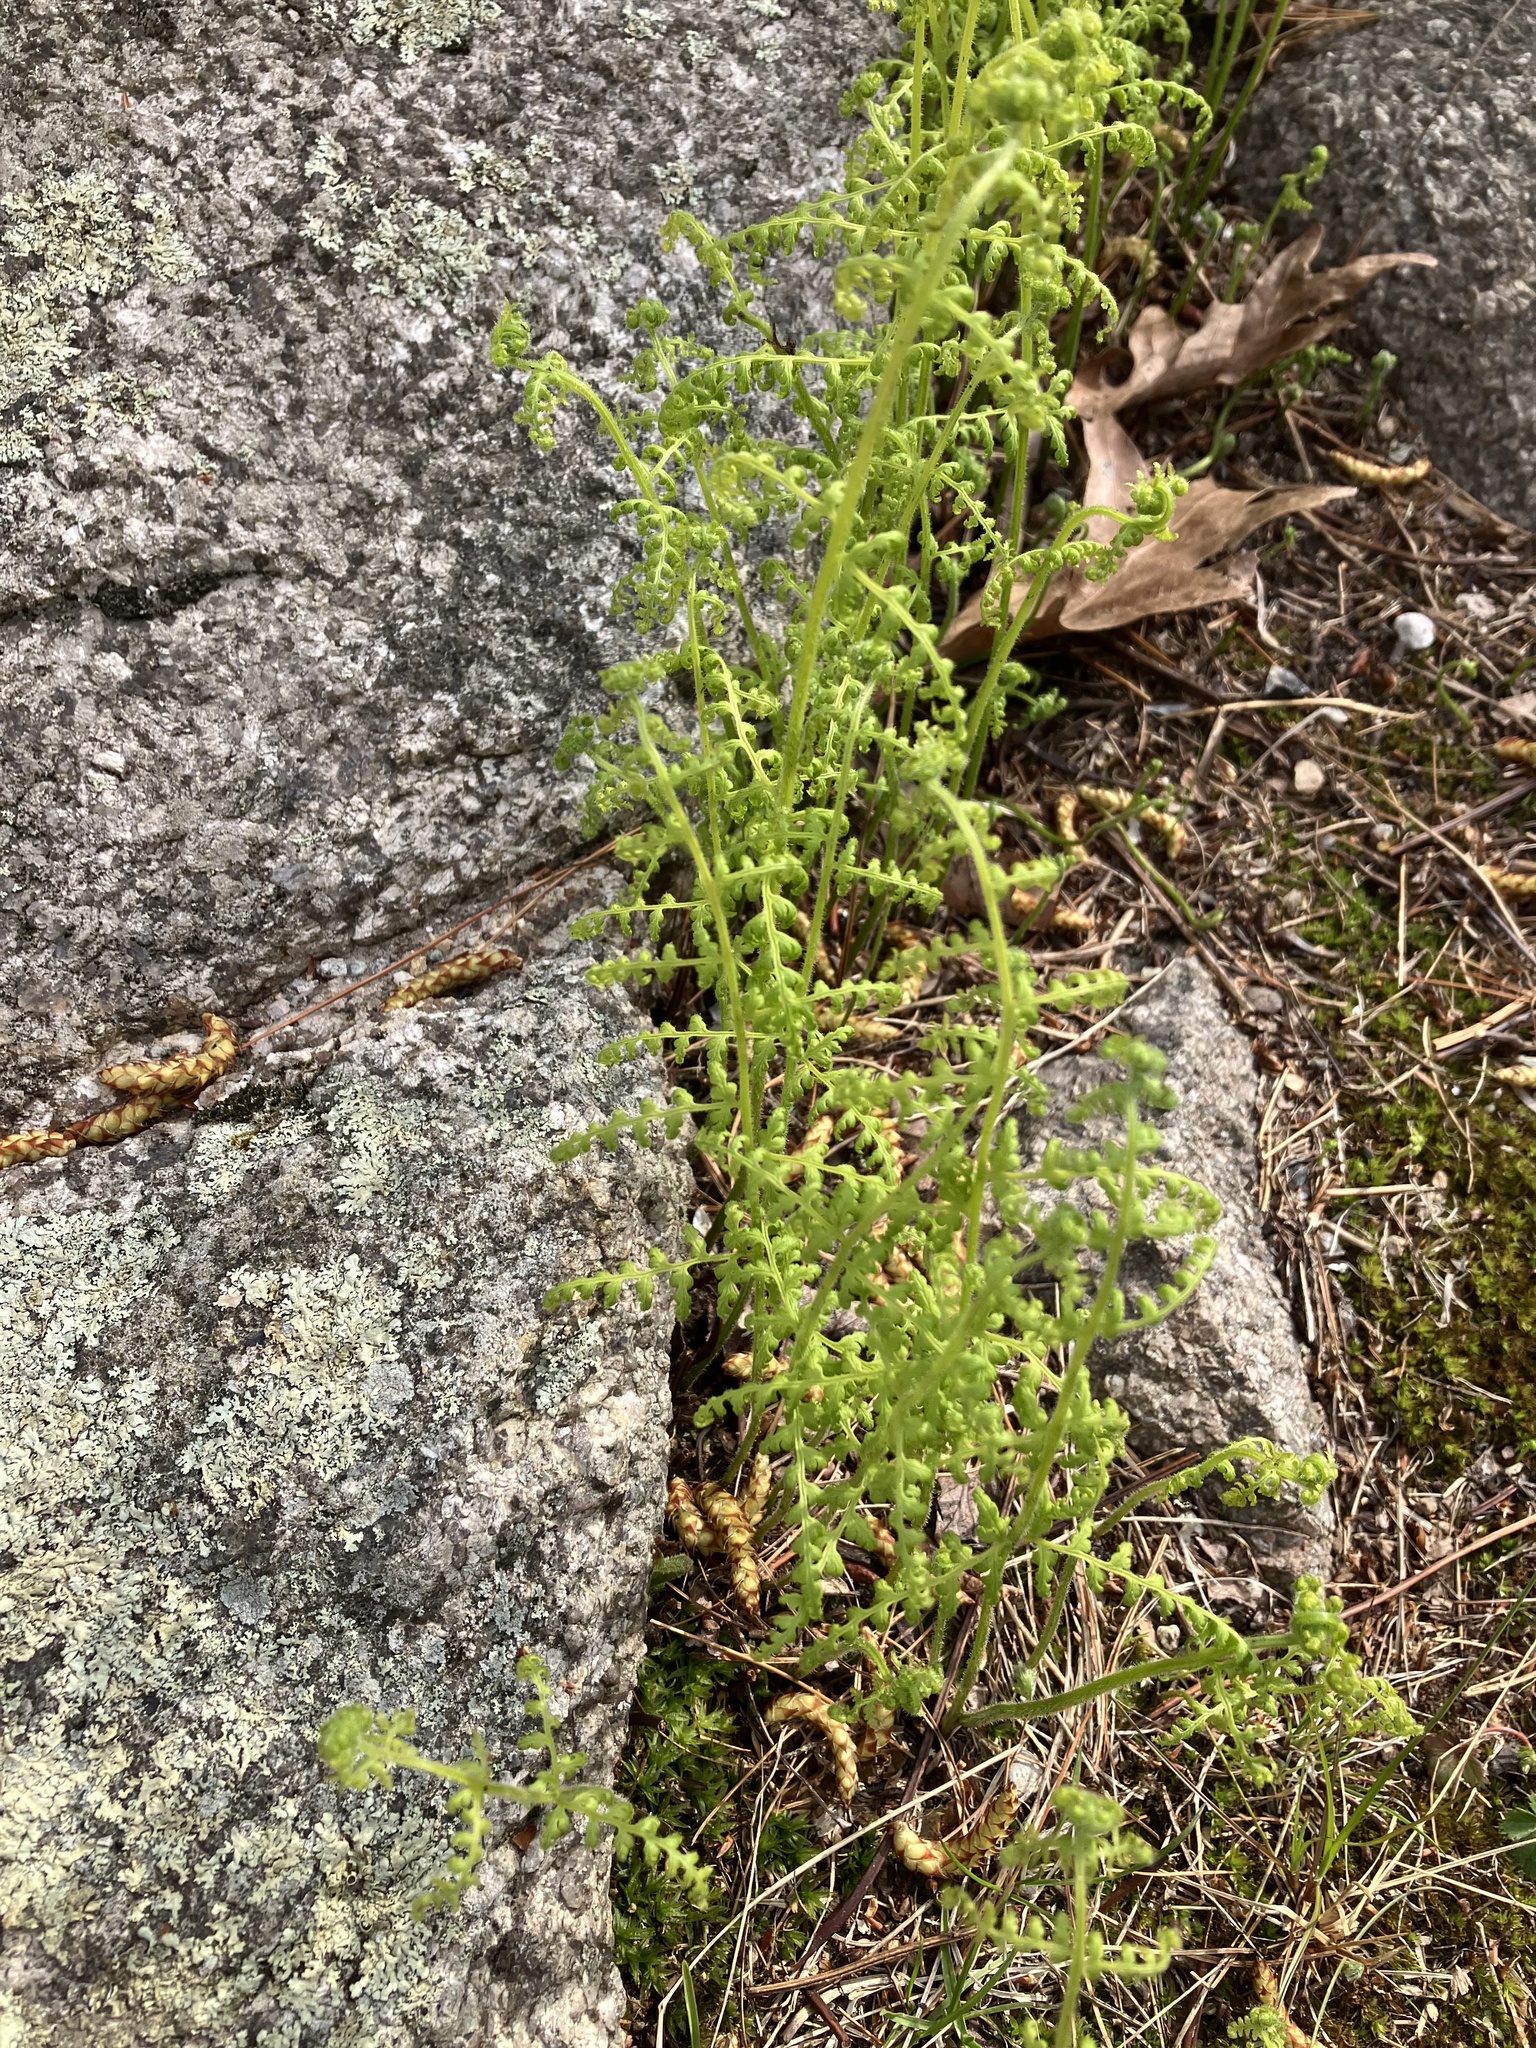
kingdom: Plantae
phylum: Tracheophyta
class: Polypodiopsida
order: Polypodiales
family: Dennstaedtiaceae
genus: Sitobolium
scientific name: Sitobolium punctilobum
